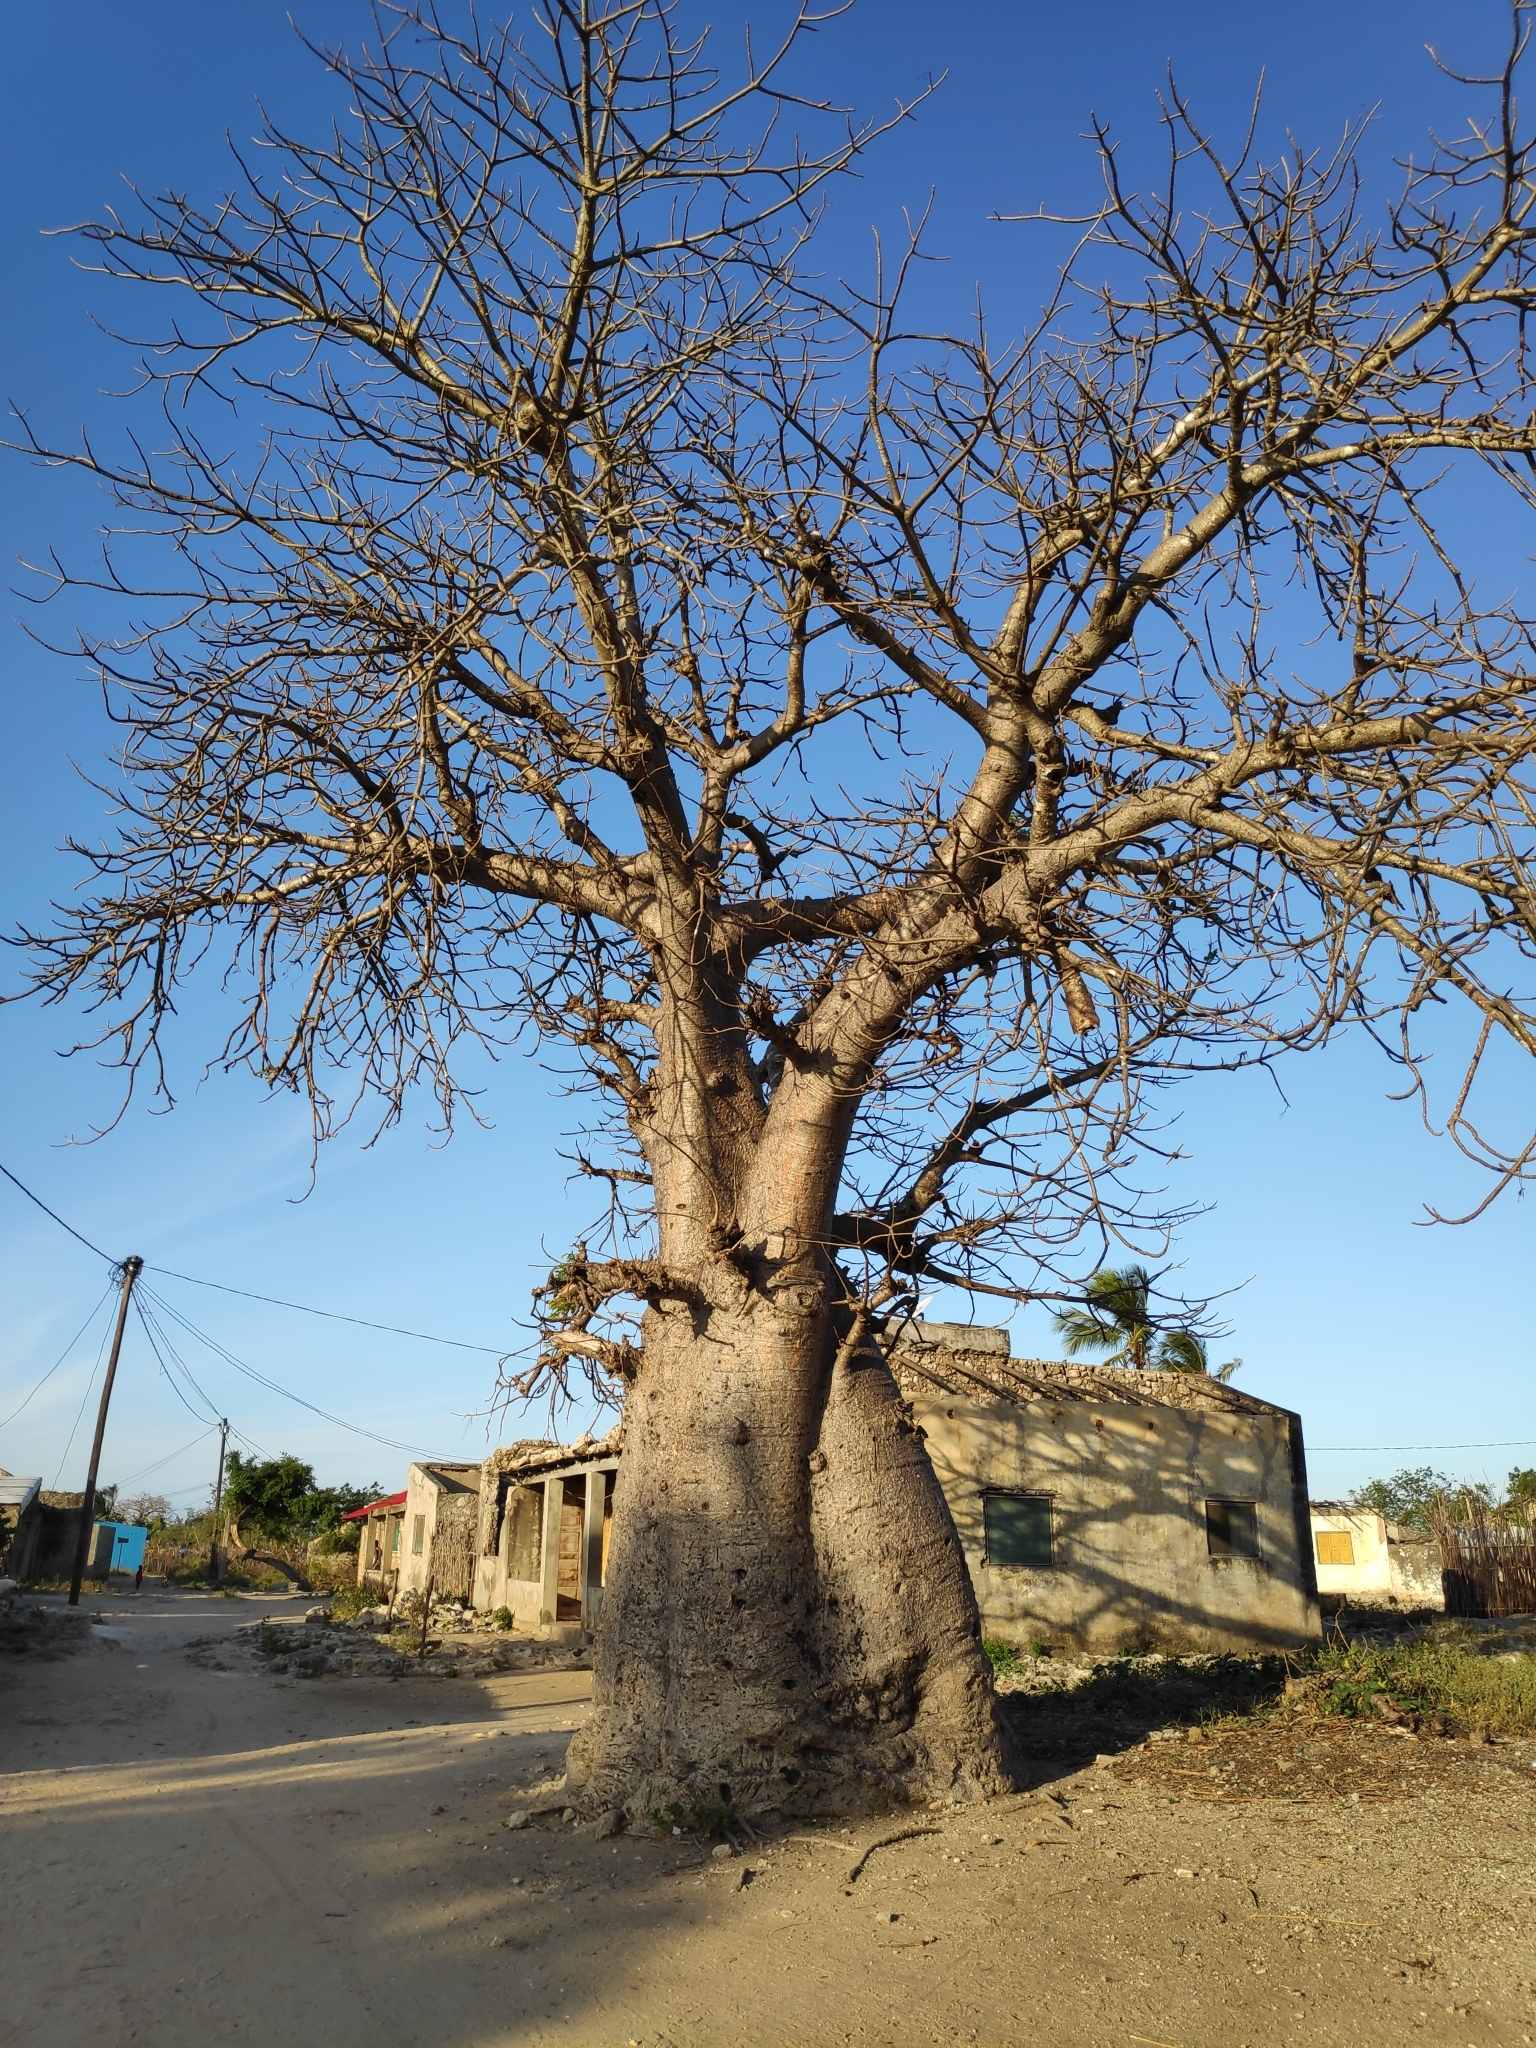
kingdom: Plantae
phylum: Tracheophyta
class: Magnoliopsida
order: Malvales
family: Malvaceae
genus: Adansonia
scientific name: Adansonia digitata
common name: Dead-rat-tree
